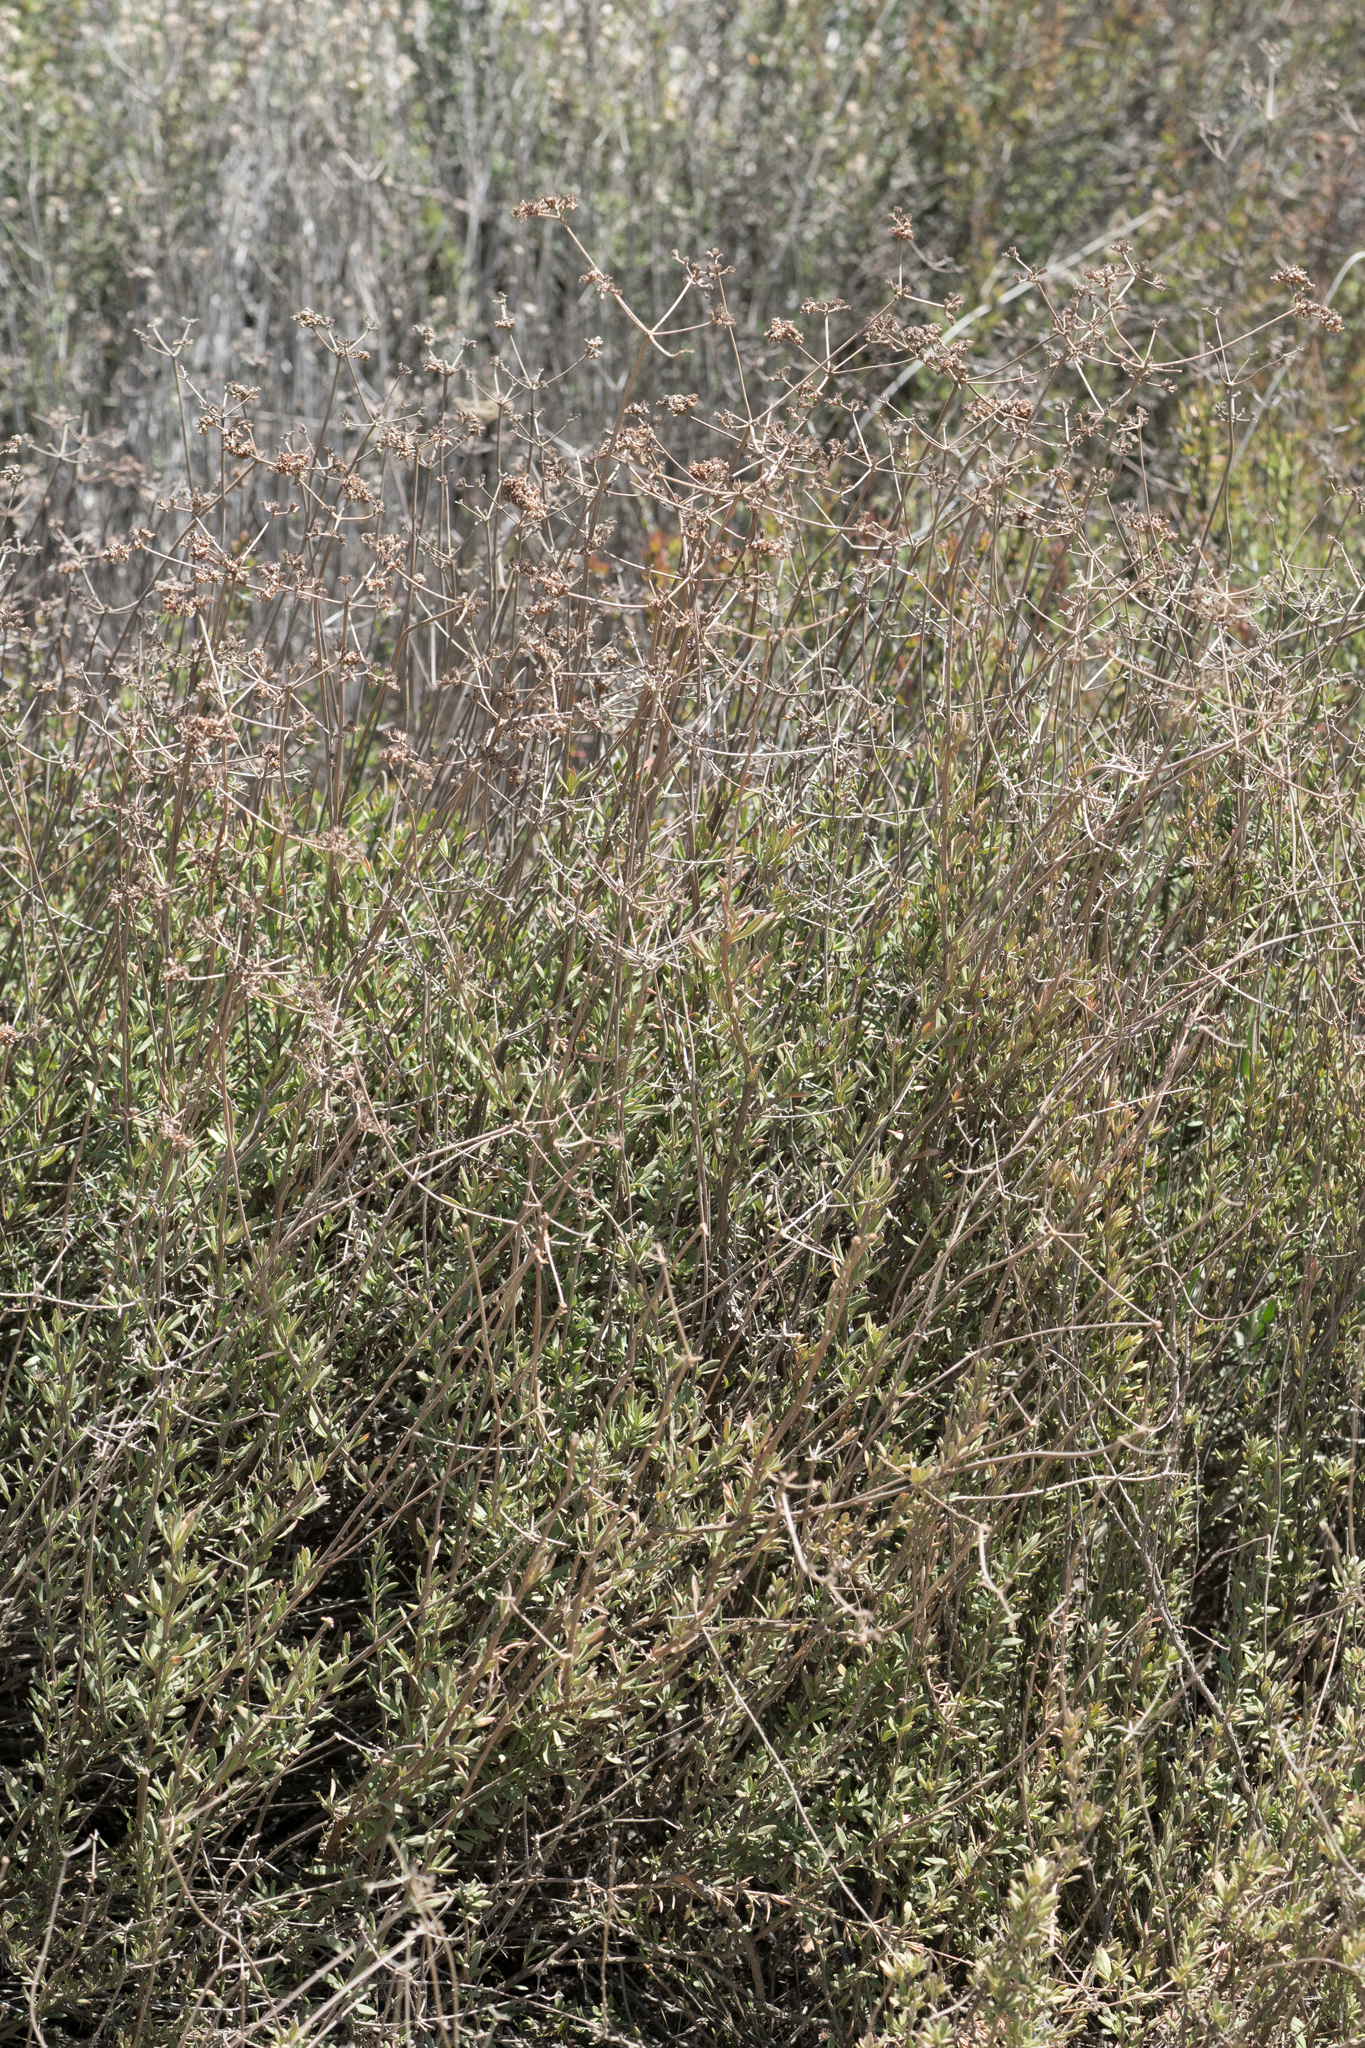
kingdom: Plantae
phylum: Tracheophyta
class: Magnoliopsida
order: Caryophyllales
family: Polygonaceae
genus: Eriogonum
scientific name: Eriogonum fasciculatum
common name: California wild buckwheat
